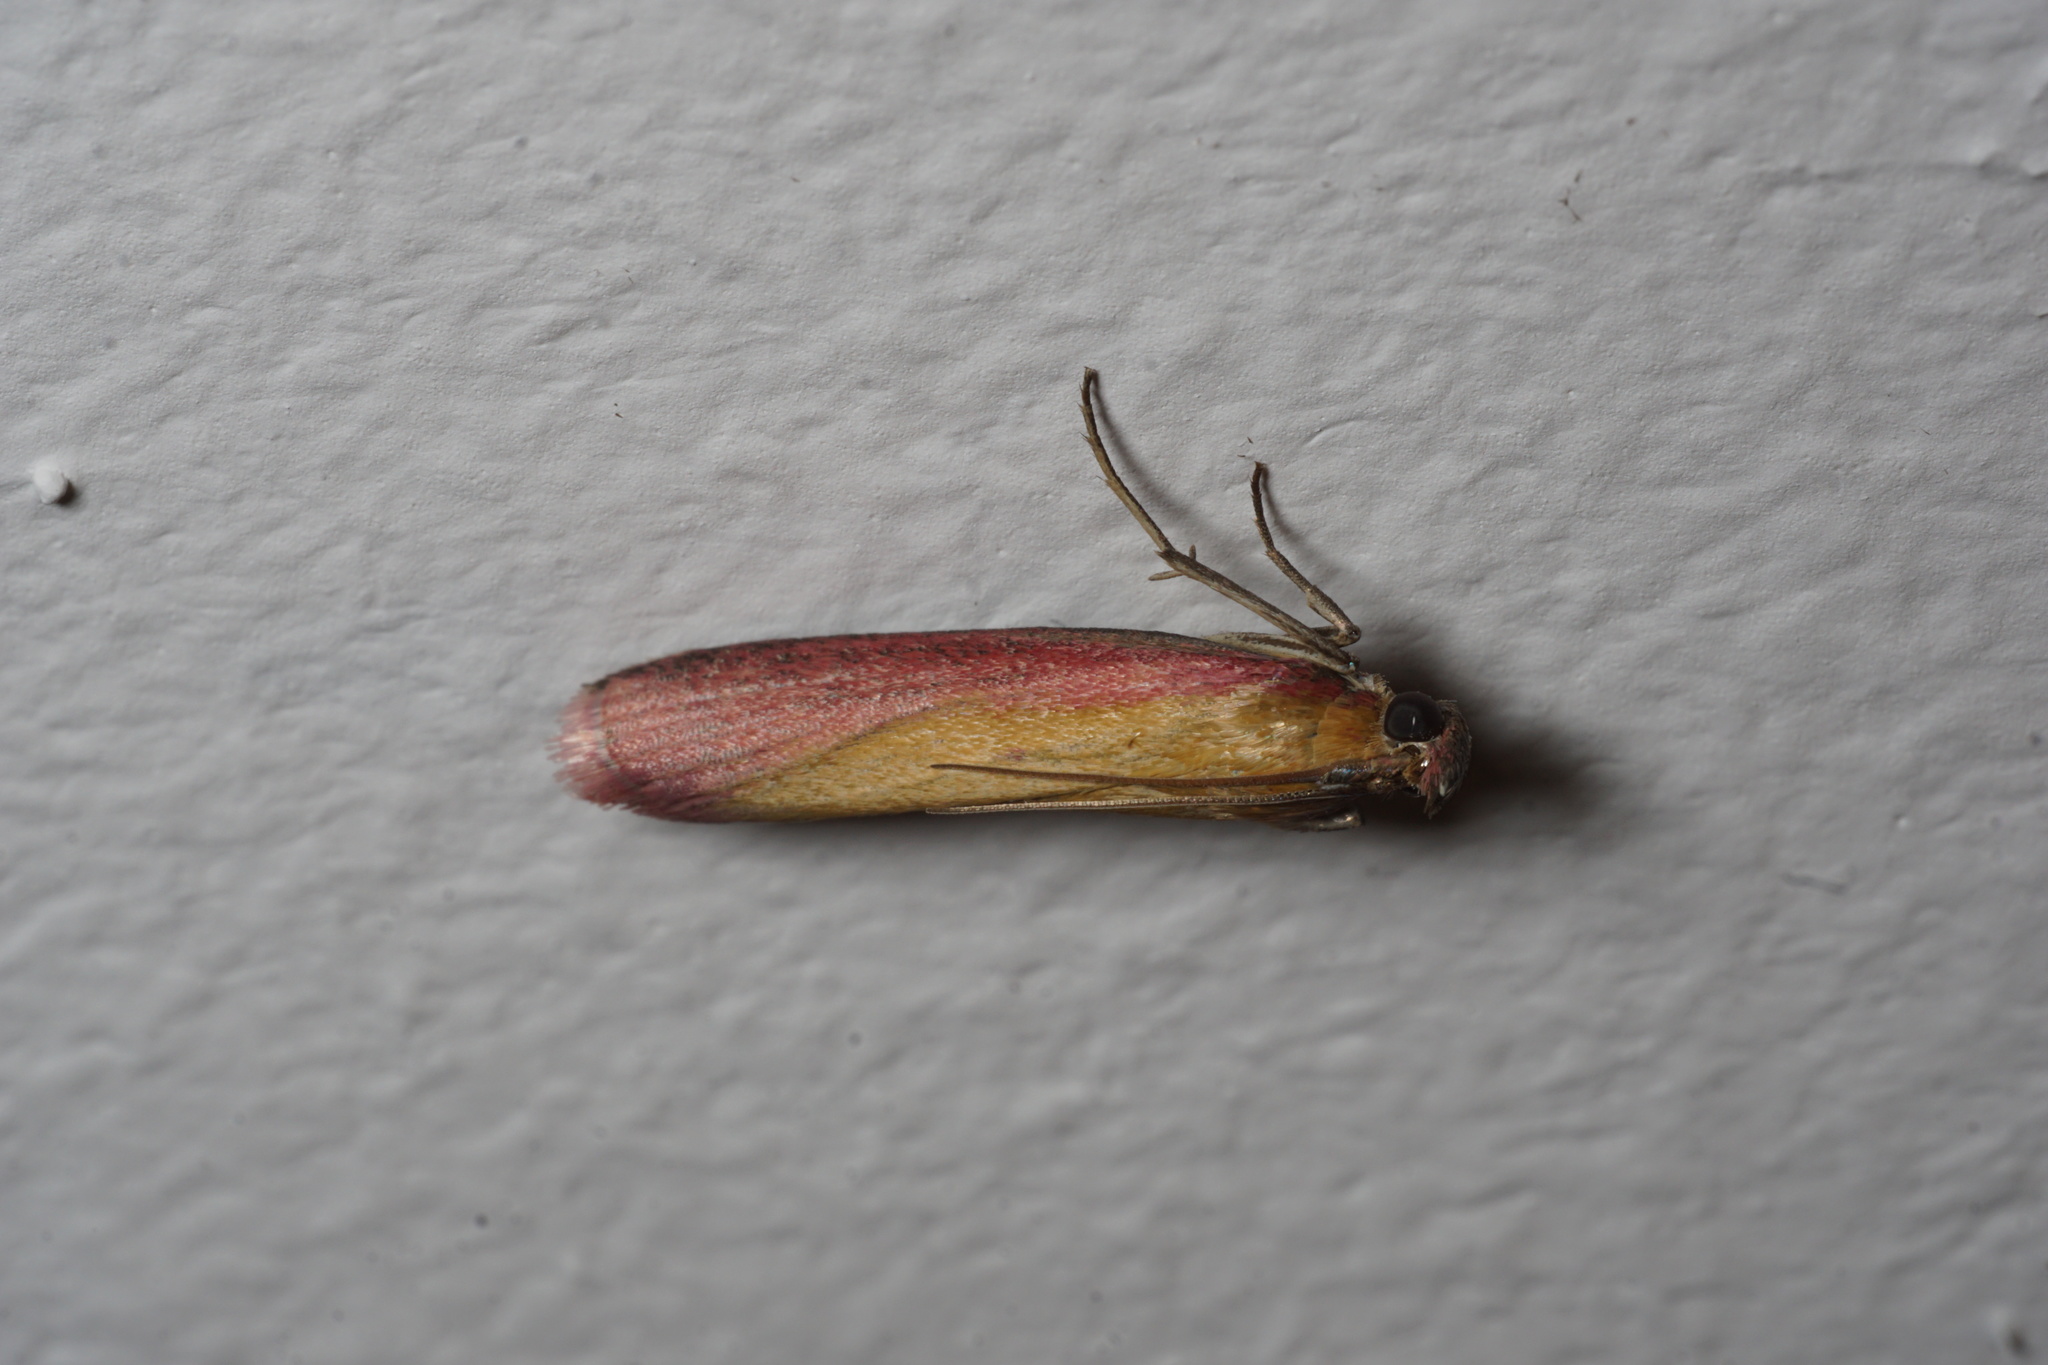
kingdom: Animalia
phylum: Arthropoda
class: Insecta
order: Lepidoptera
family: Pyralidae
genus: Oncocera
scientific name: Oncocera semirubella
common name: Rosy-striped knot-horn
